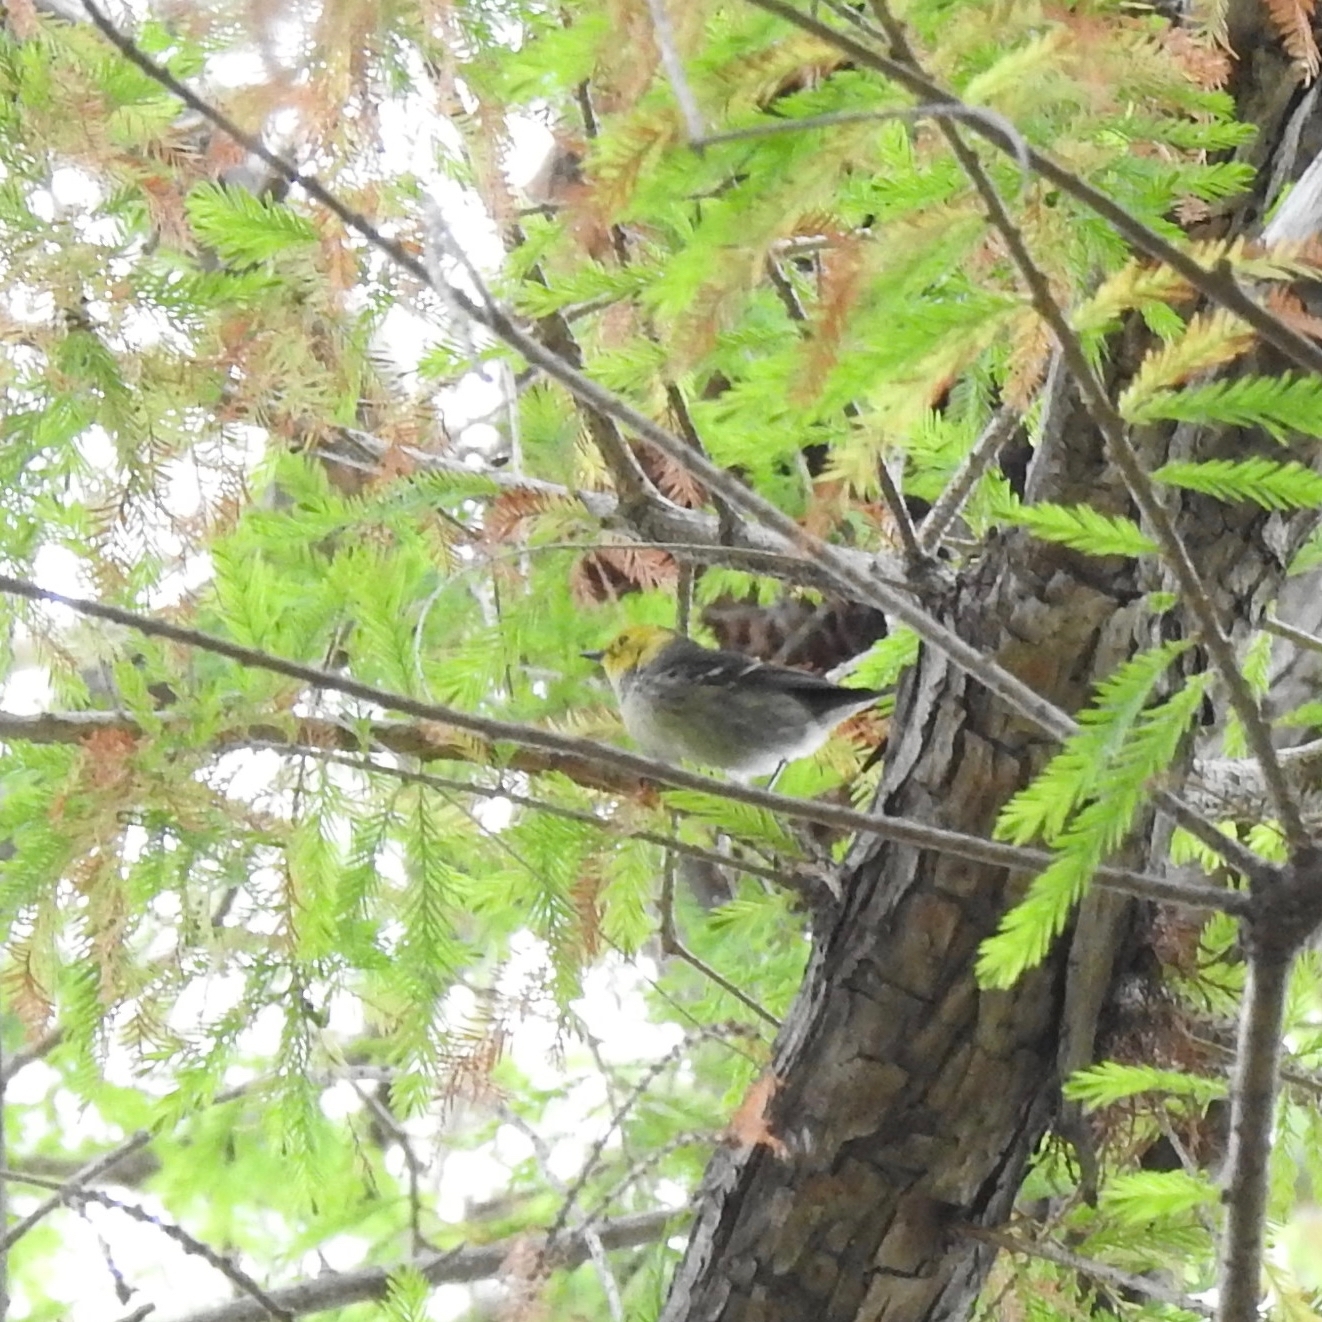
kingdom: Animalia
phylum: Chordata
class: Aves
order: Passeriformes
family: Parulidae
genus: Setophaga
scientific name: Setophaga occidentalis
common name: Hermit warbler
